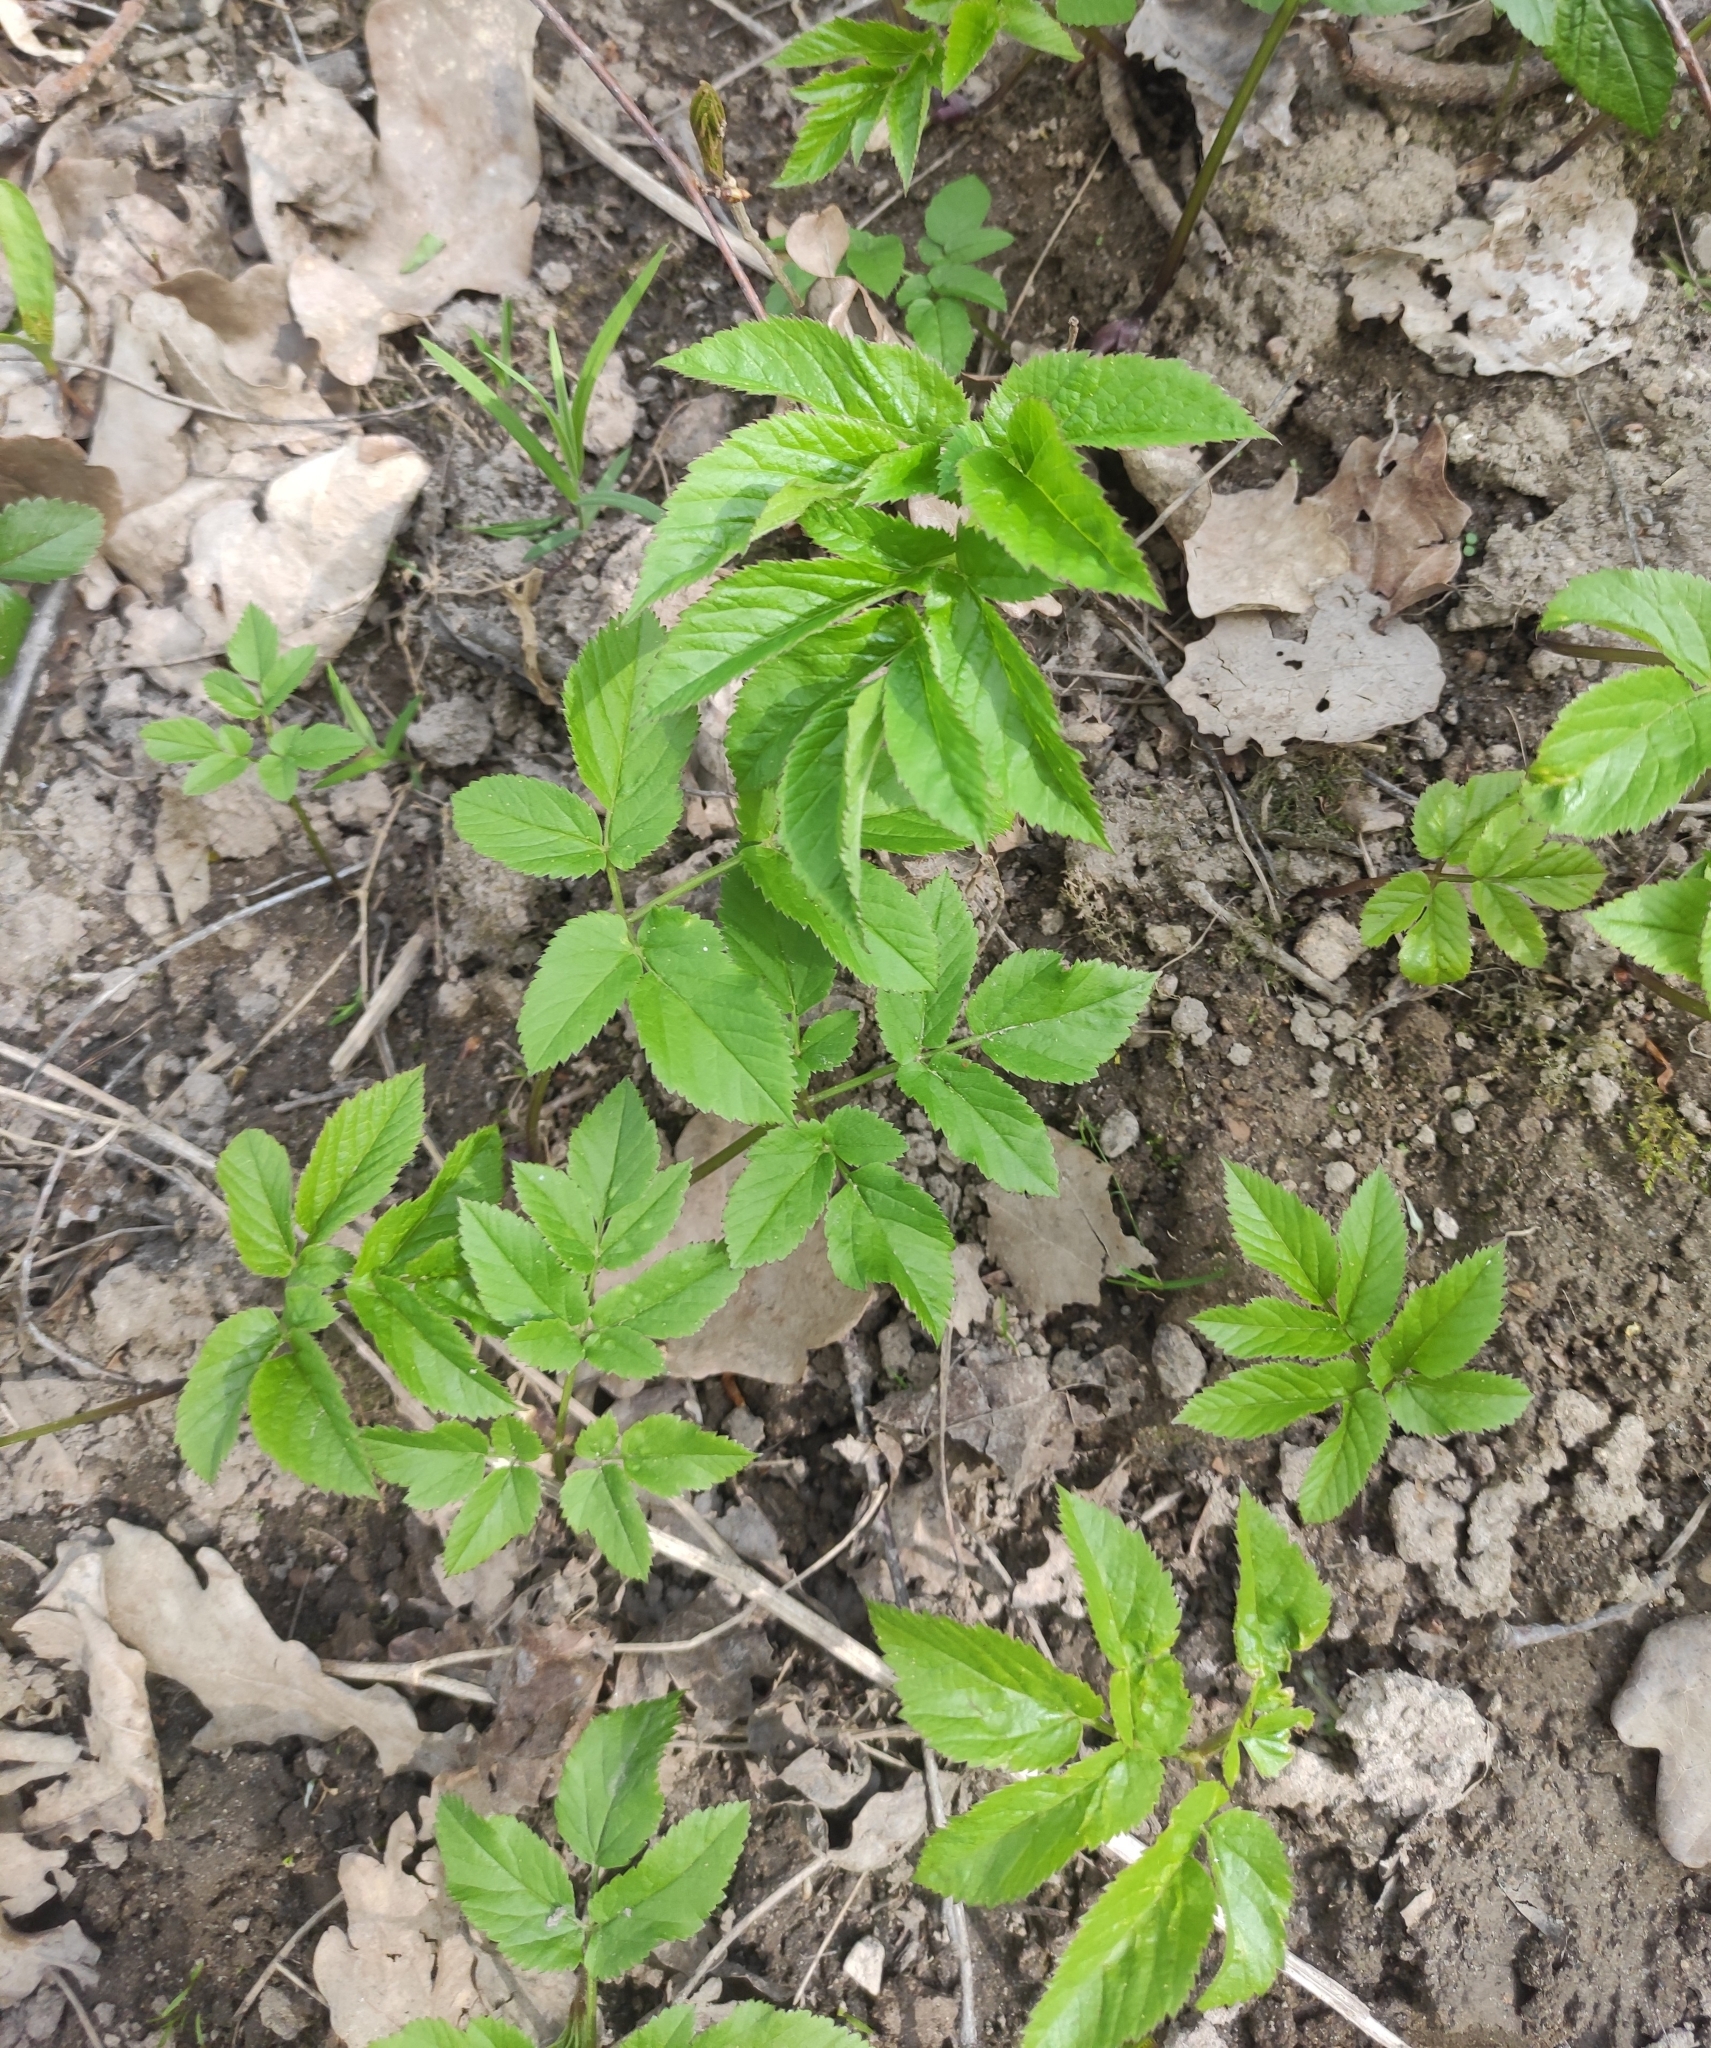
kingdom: Plantae
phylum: Tracheophyta
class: Magnoliopsida
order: Apiales
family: Apiaceae
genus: Aegopodium
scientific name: Aegopodium podagraria
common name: Ground-elder
